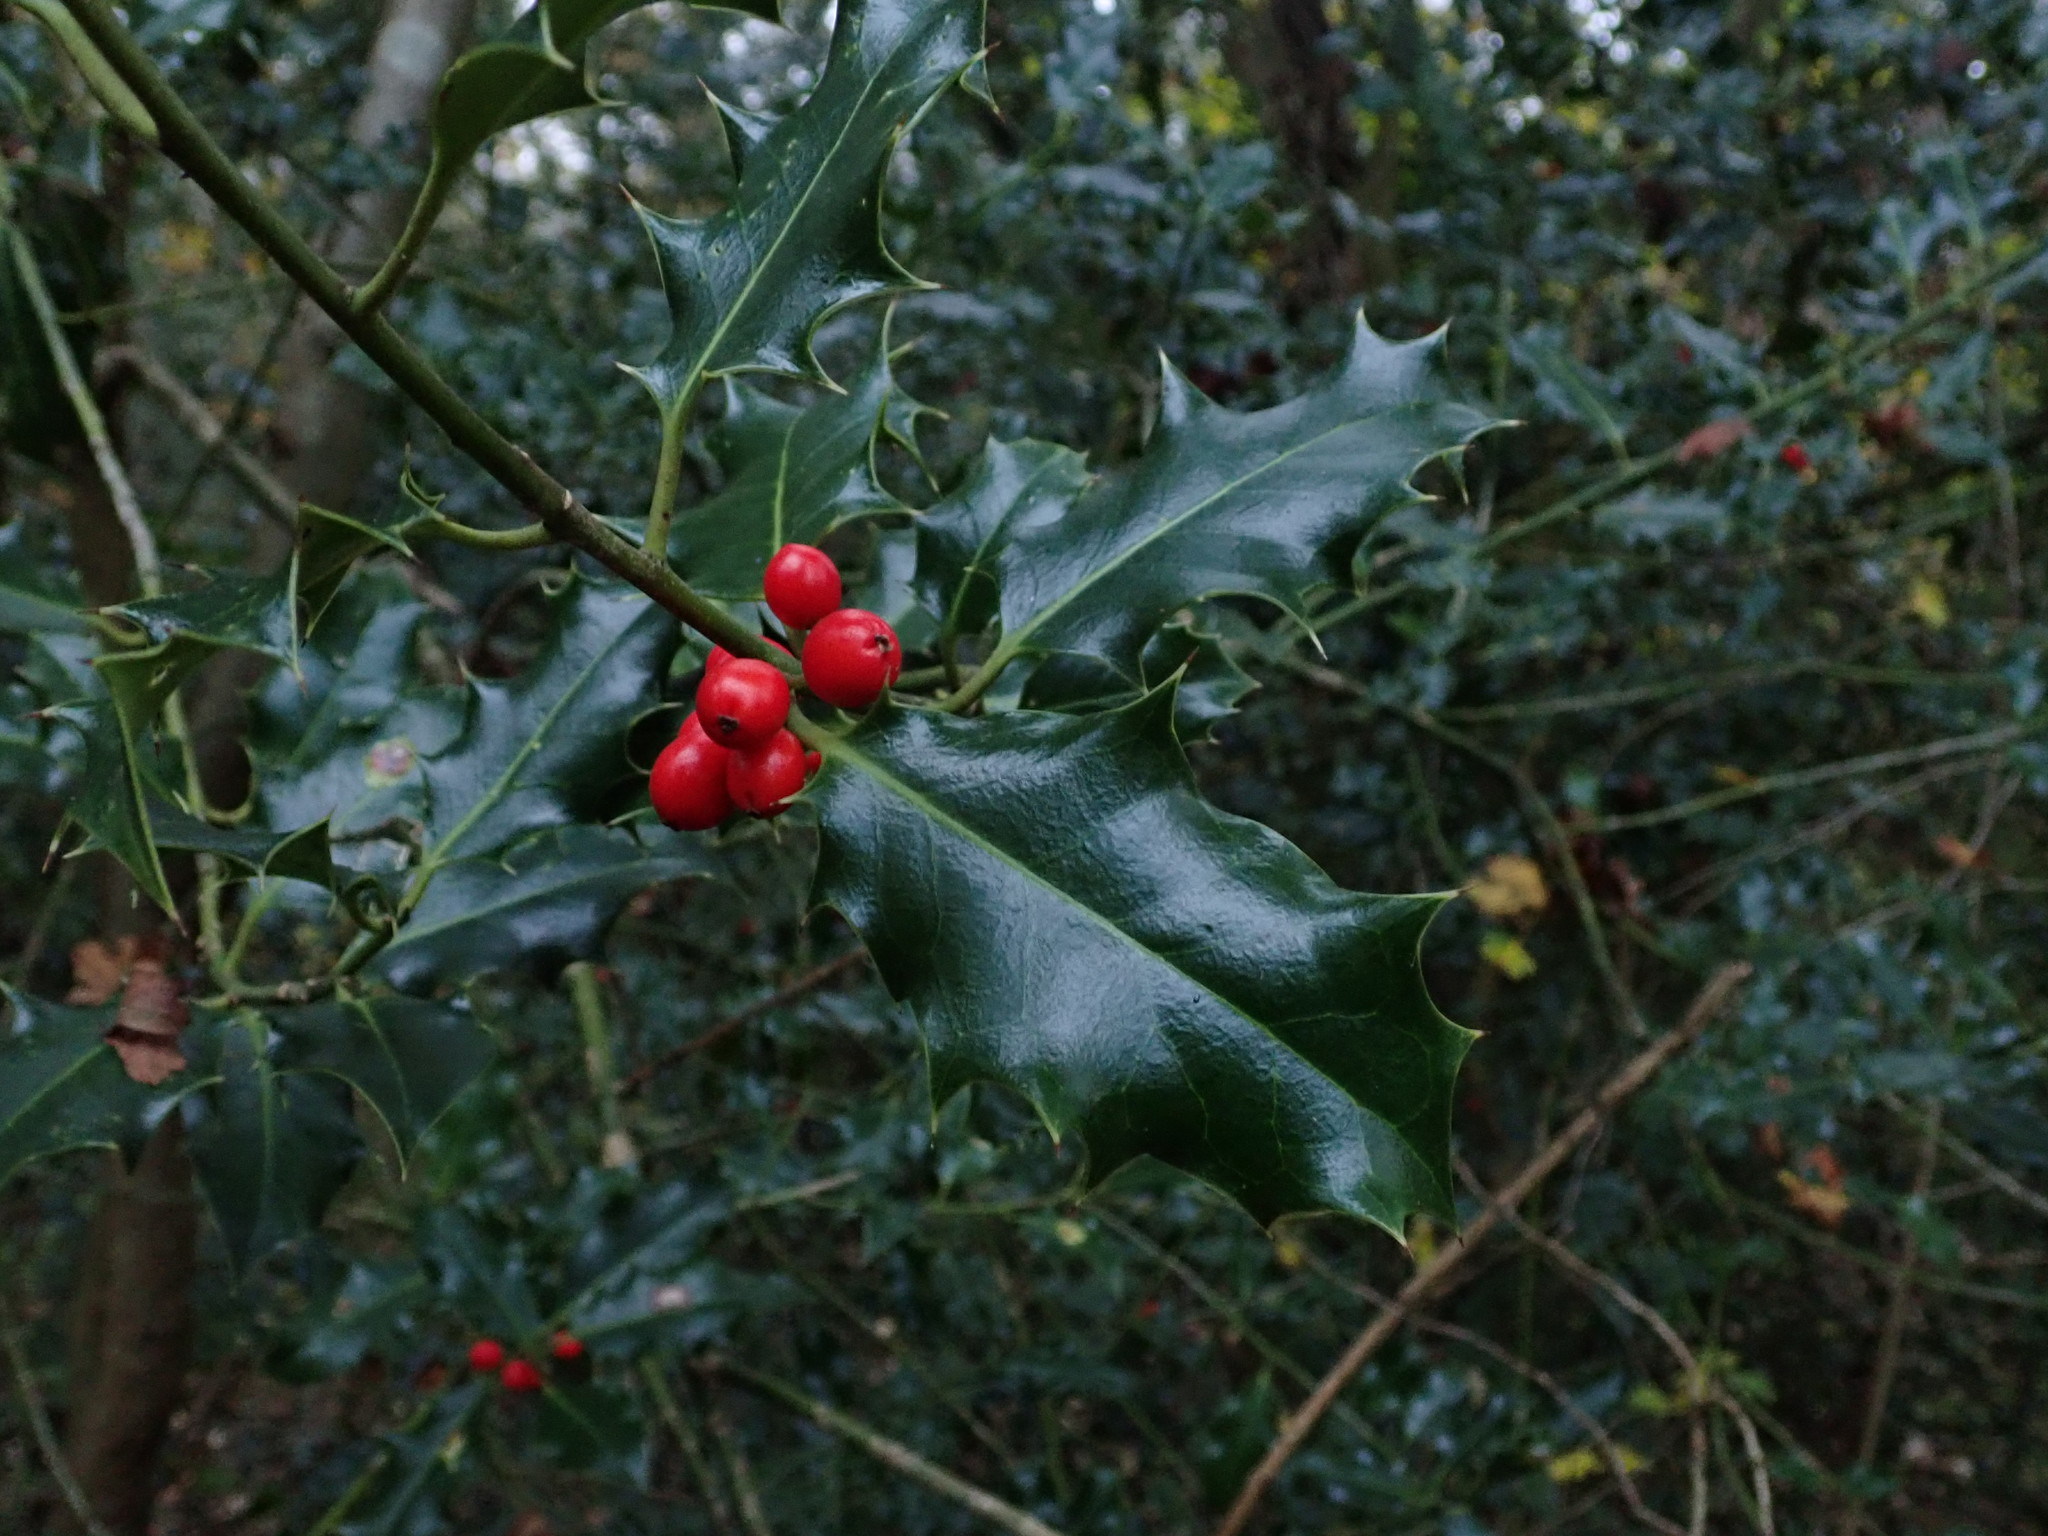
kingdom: Plantae
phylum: Tracheophyta
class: Magnoliopsida
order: Aquifoliales
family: Aquifoliaceae
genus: Ilex
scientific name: Ilex aquifolium
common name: English holly
